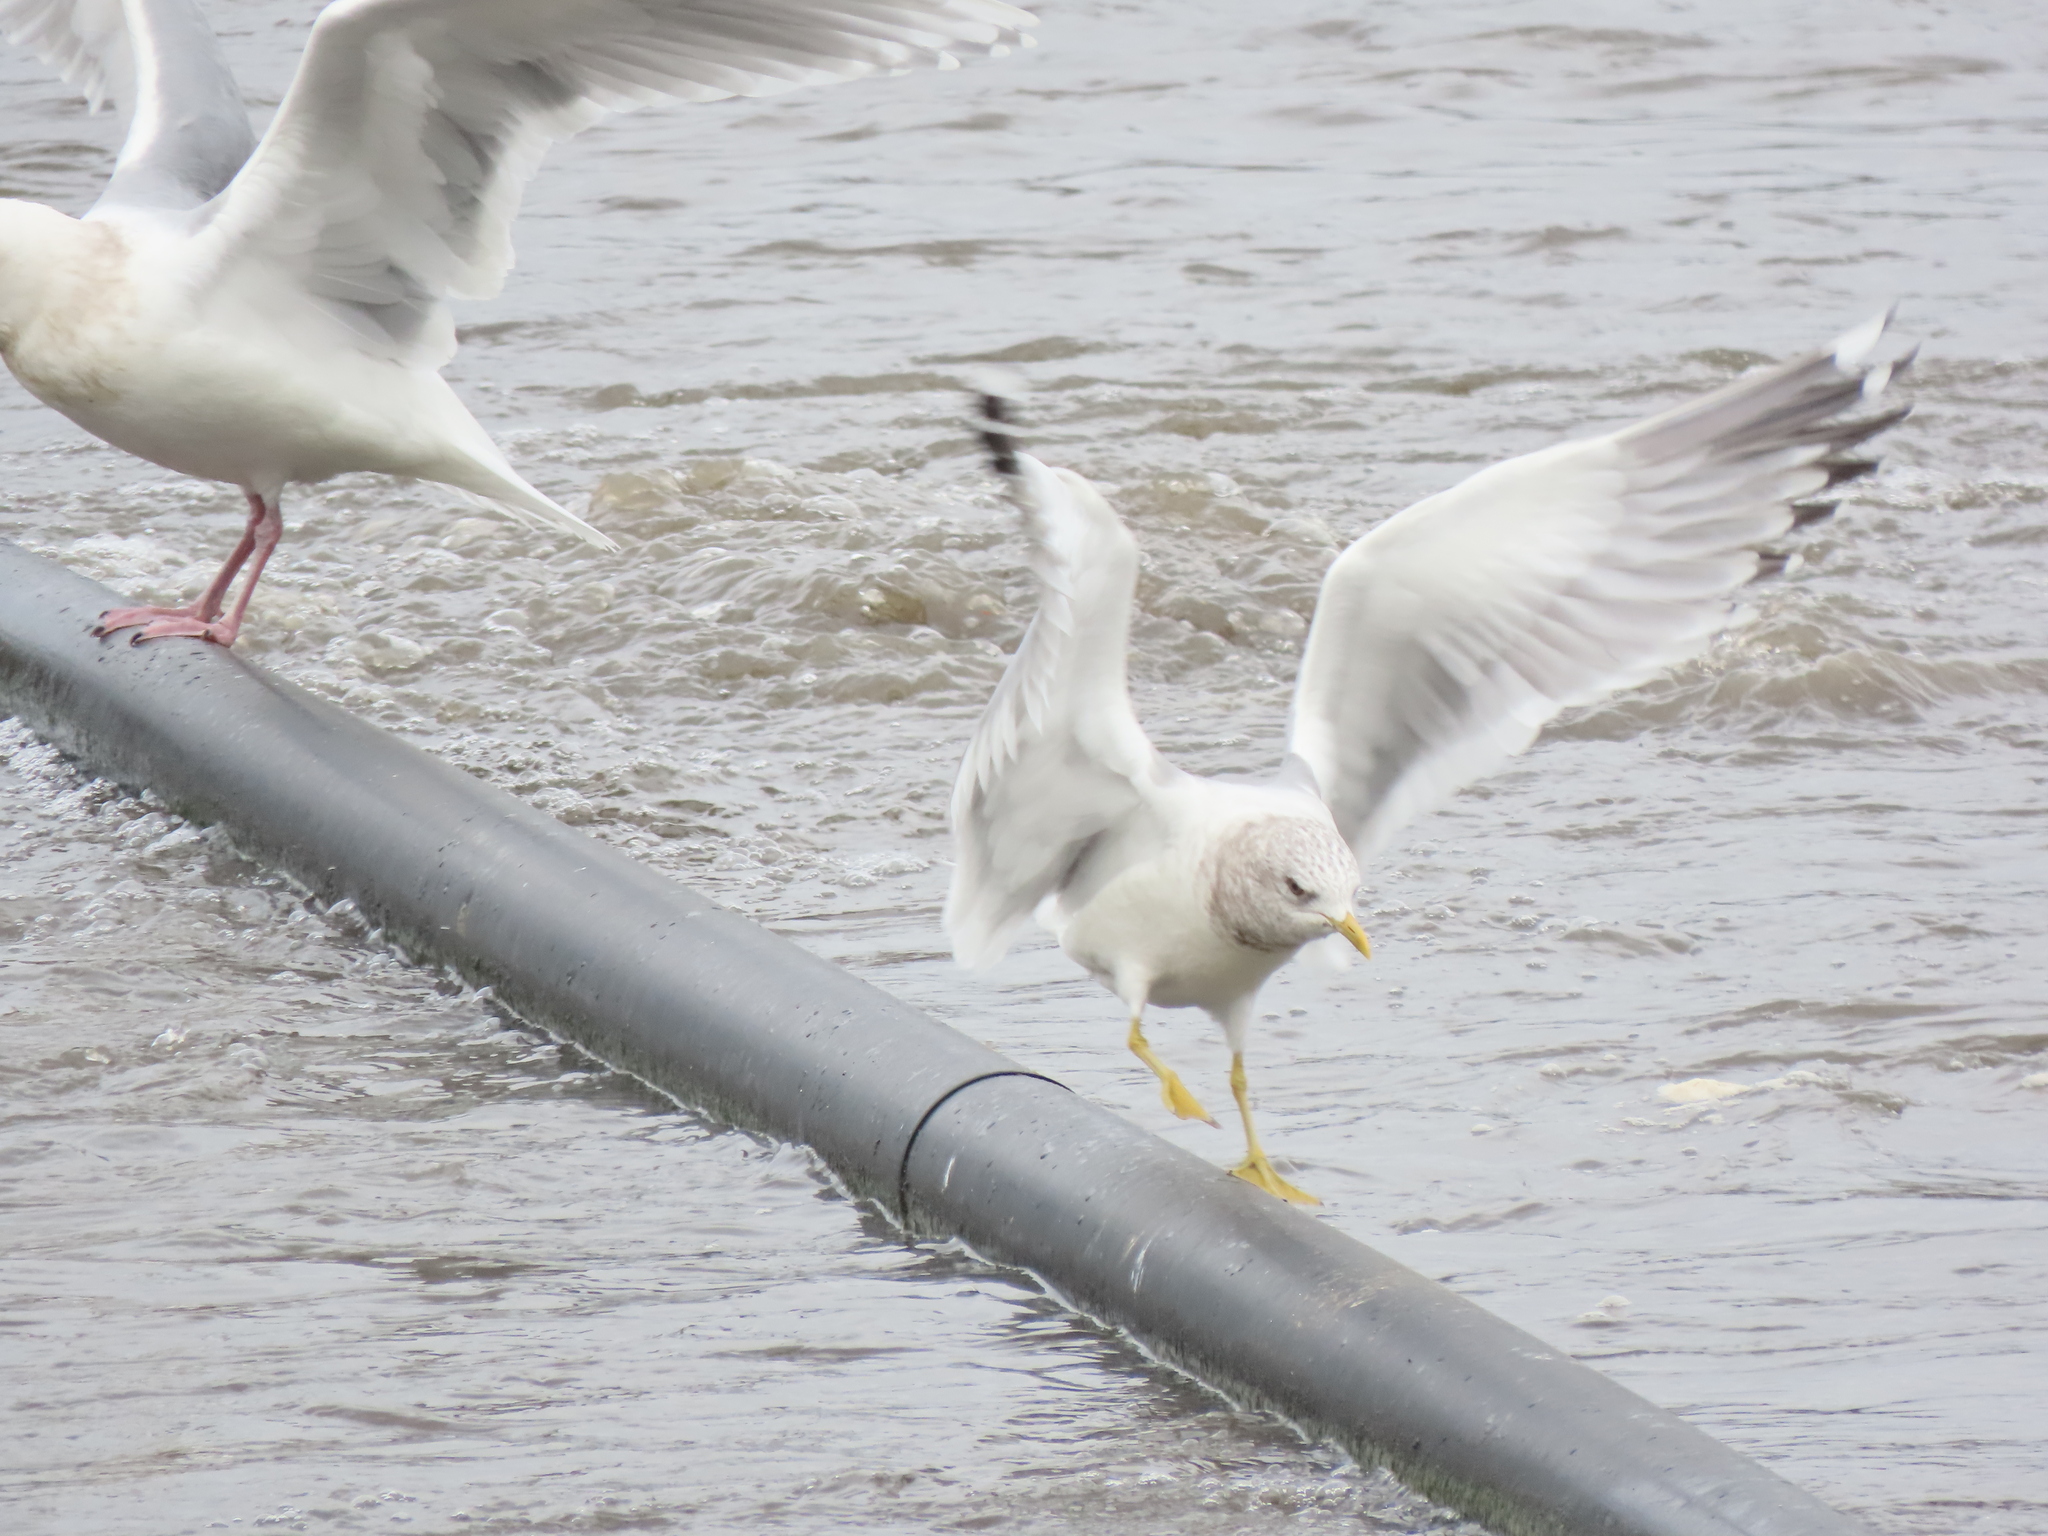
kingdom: Animalia
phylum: Chordata
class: Aves
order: Charadriiformes
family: Laridae
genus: Larus
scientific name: Larus brachyrhynchus
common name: Short-billed gull
